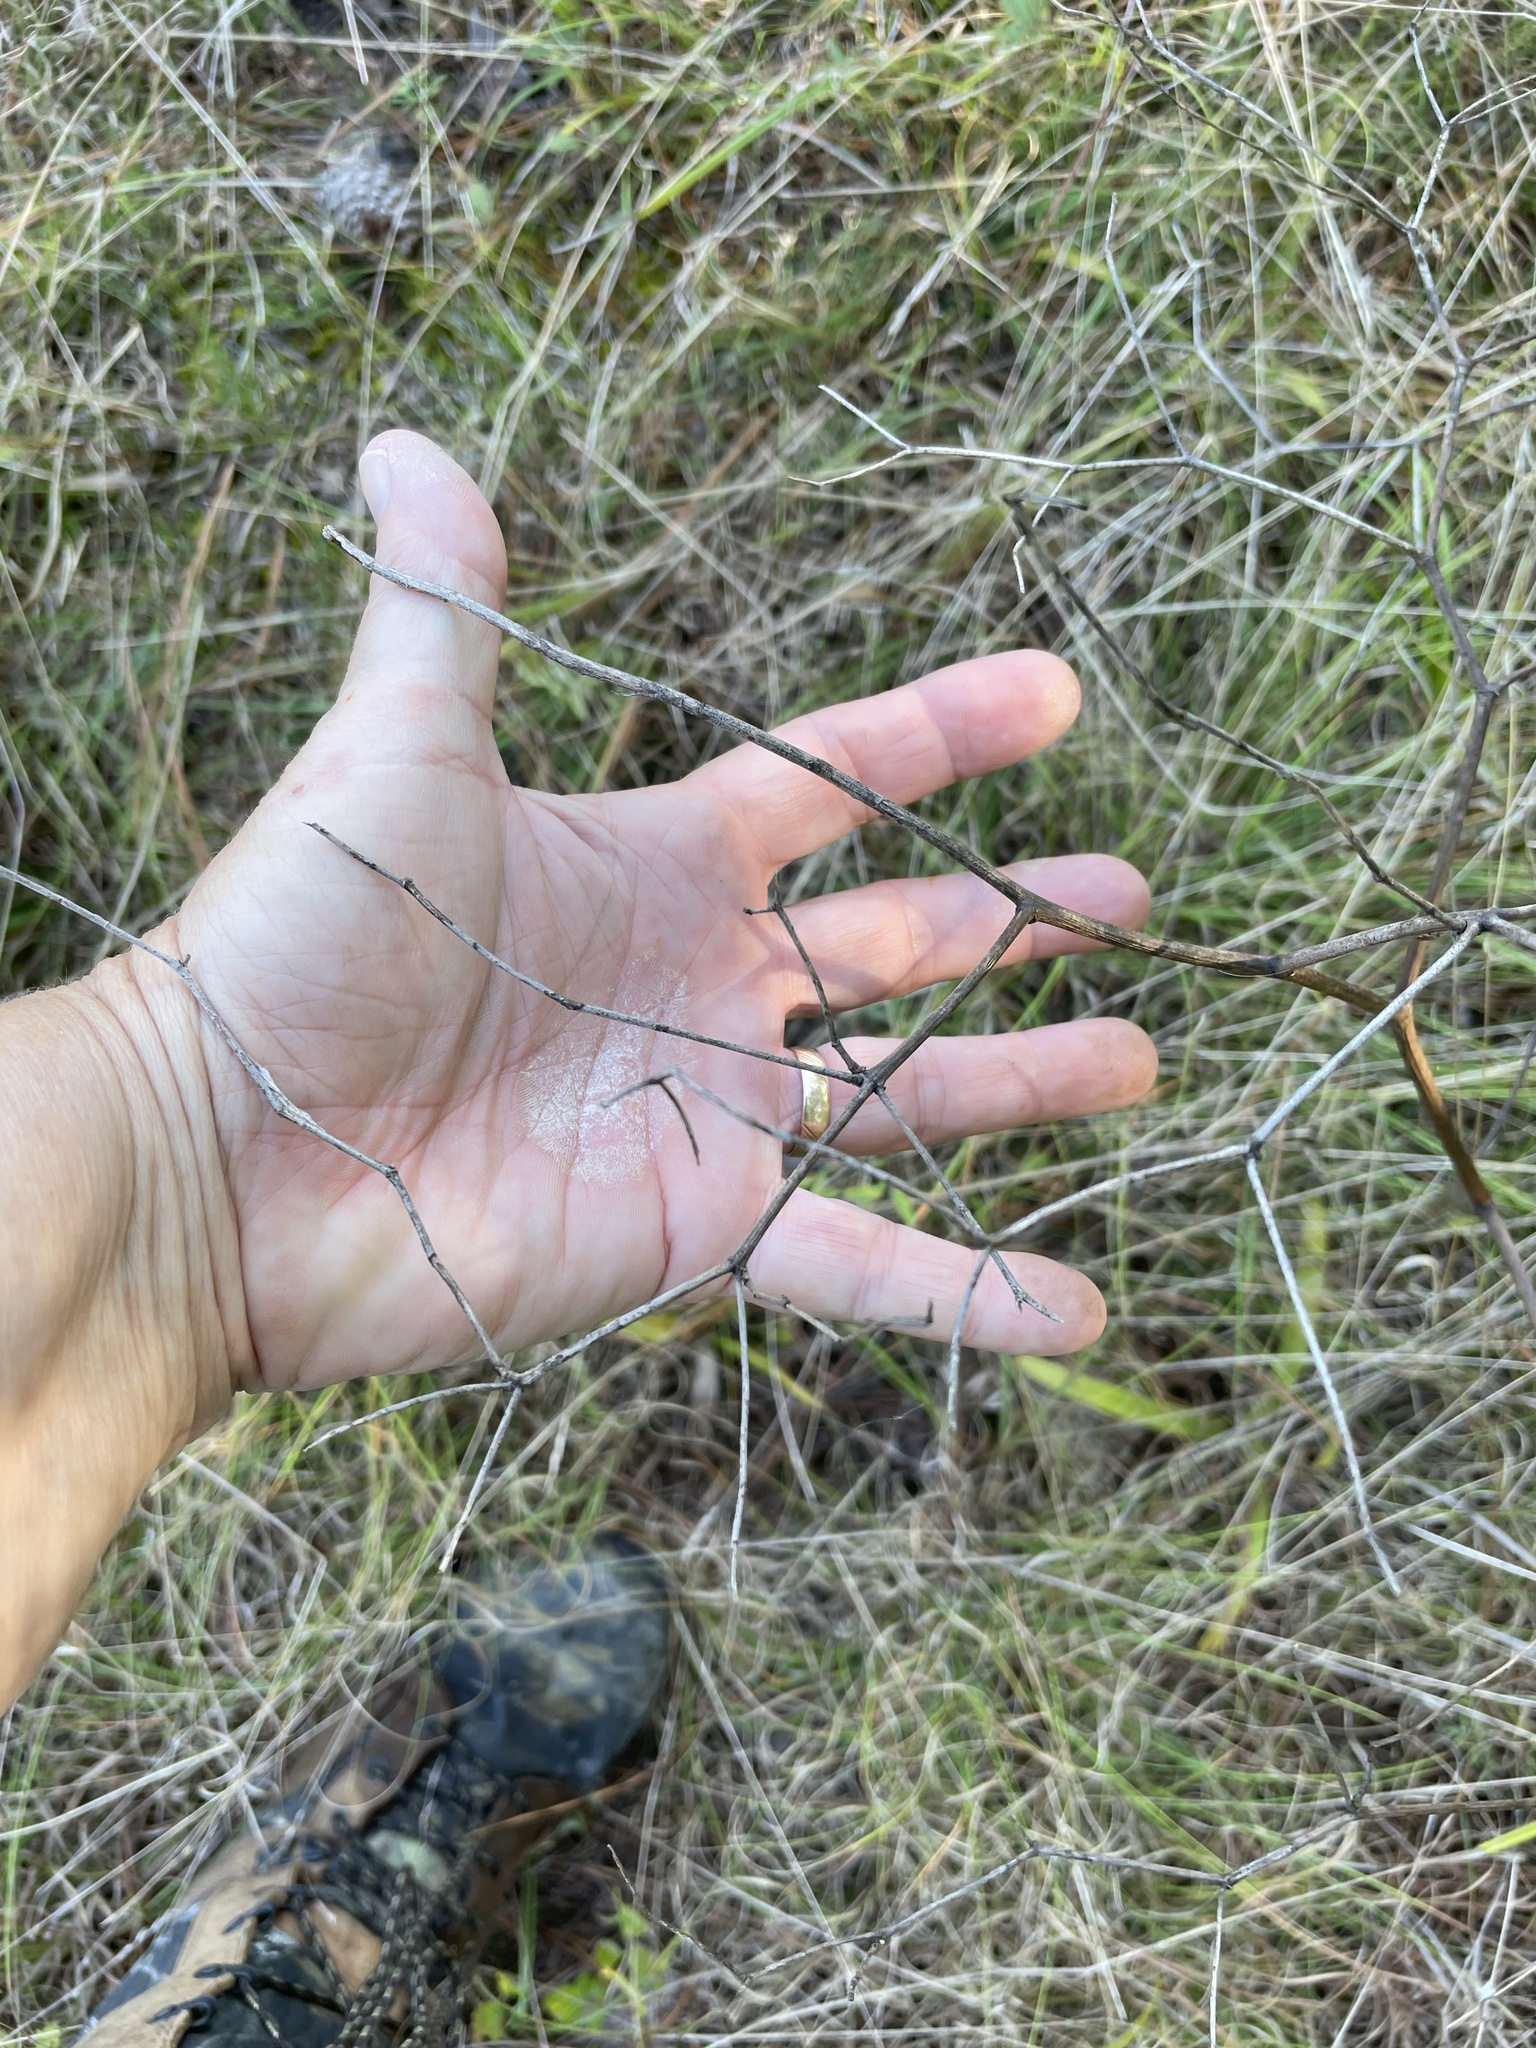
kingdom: Plantae
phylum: Tracheophyta
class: Magnoliopsida
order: Fabales
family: Fabaceae
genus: Baptisia
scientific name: Baptisia alba
